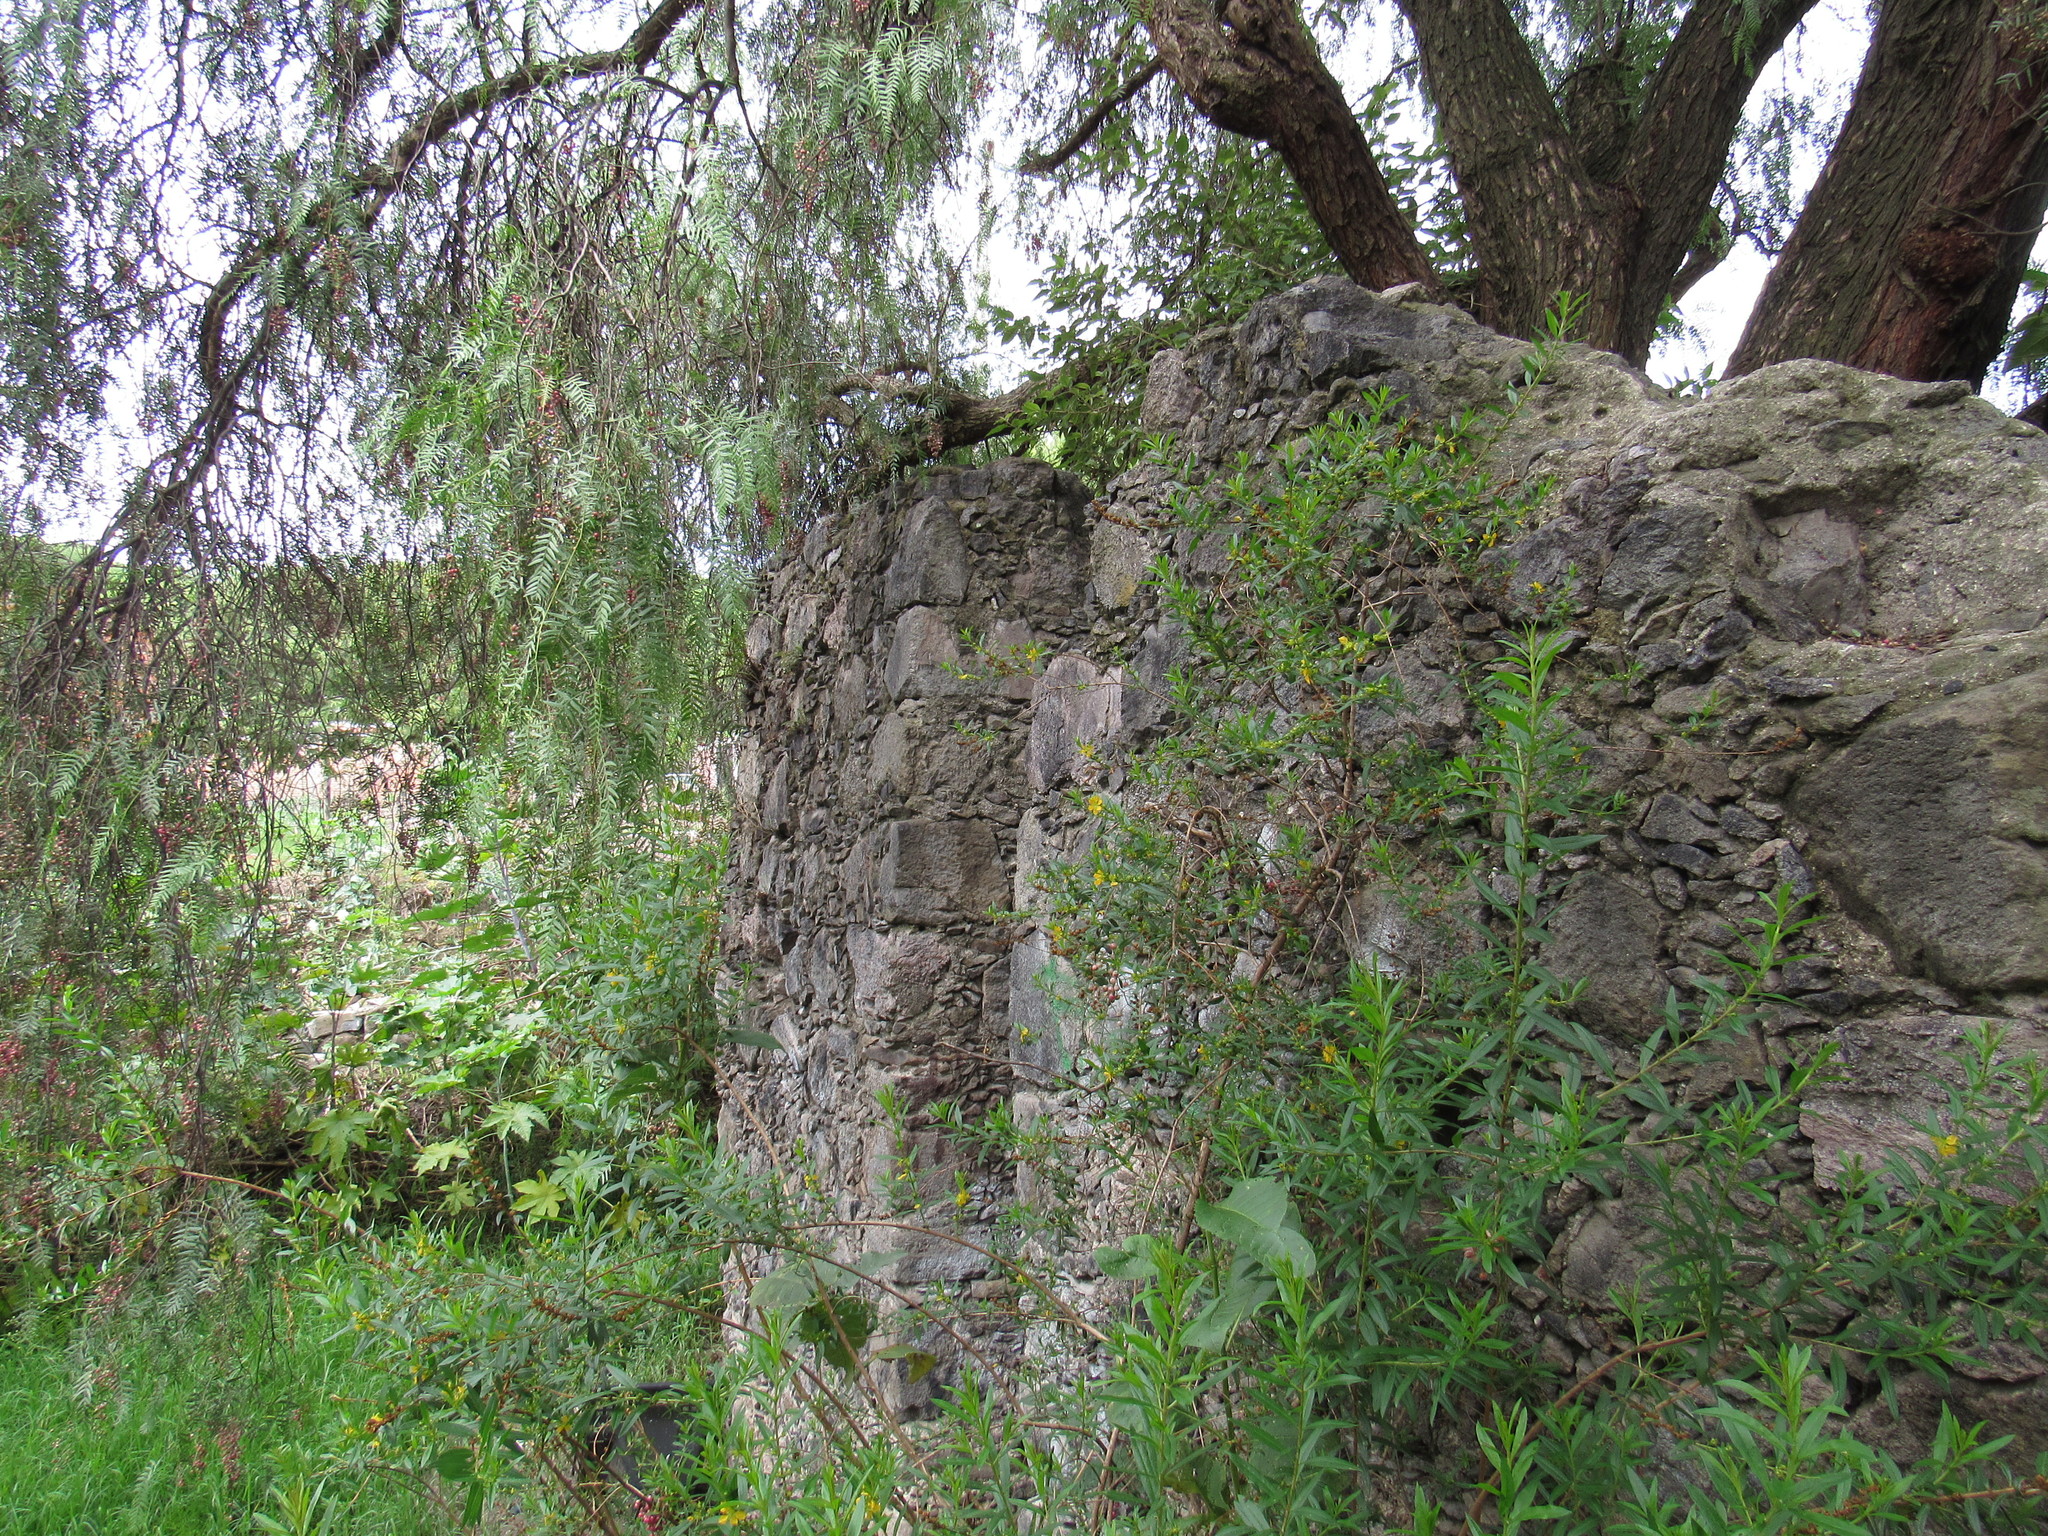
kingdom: Plantae
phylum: Tracheophyta
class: Magnoliopsida
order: Sapindales
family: Anacardiaceae
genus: Schinus
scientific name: Schinus molle
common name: Peruvian peppertree
